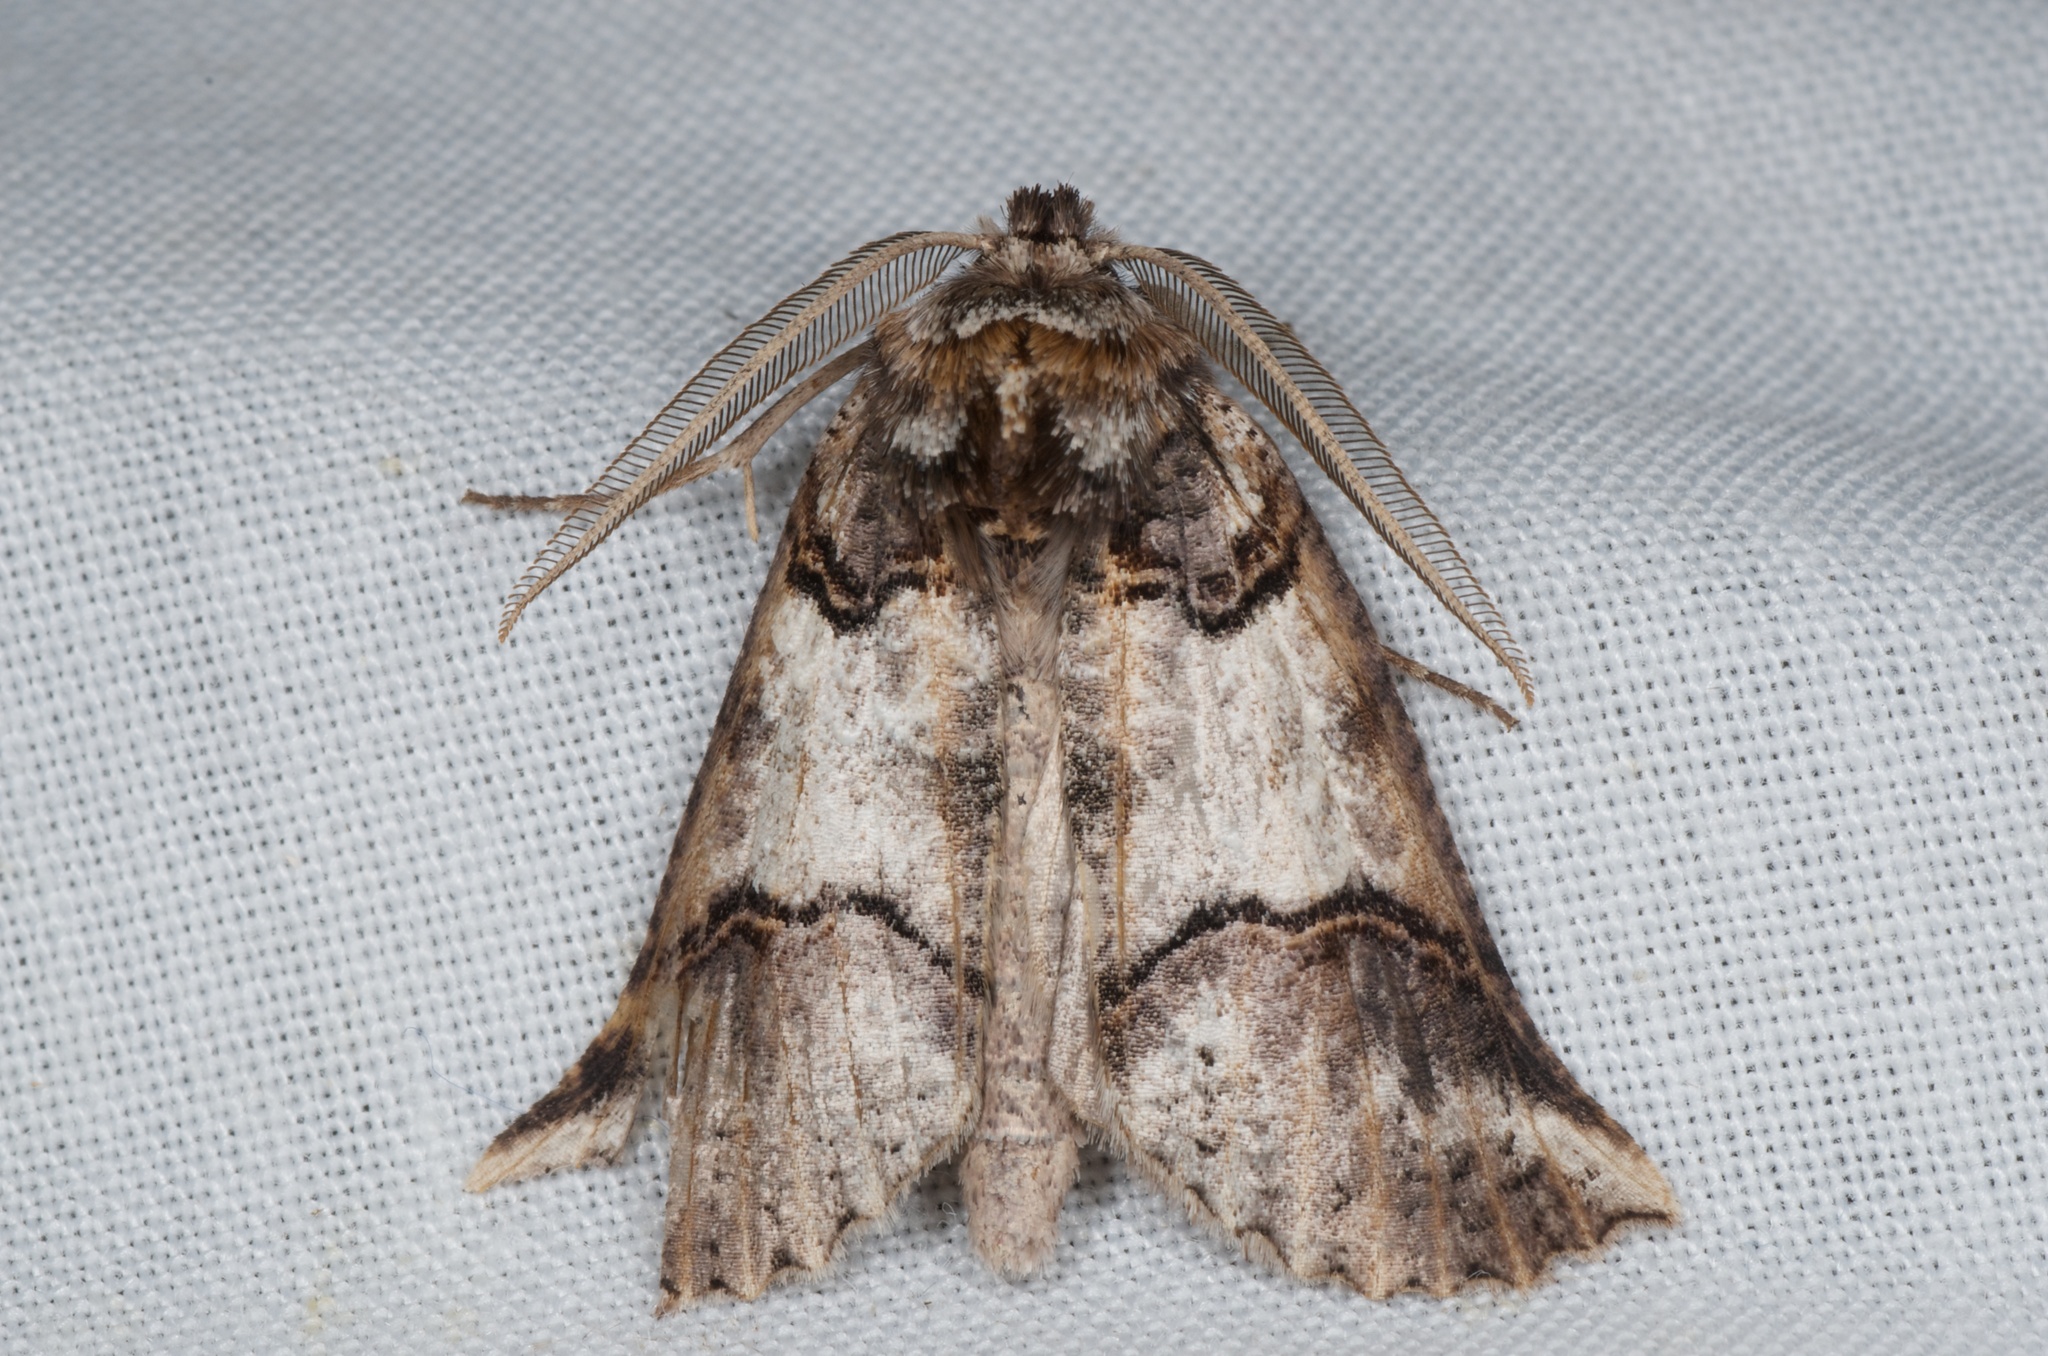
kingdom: Animalia
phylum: Arthropoda
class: Insecta
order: Lepidoptera
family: Geometridae
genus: Declana
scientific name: Declana
